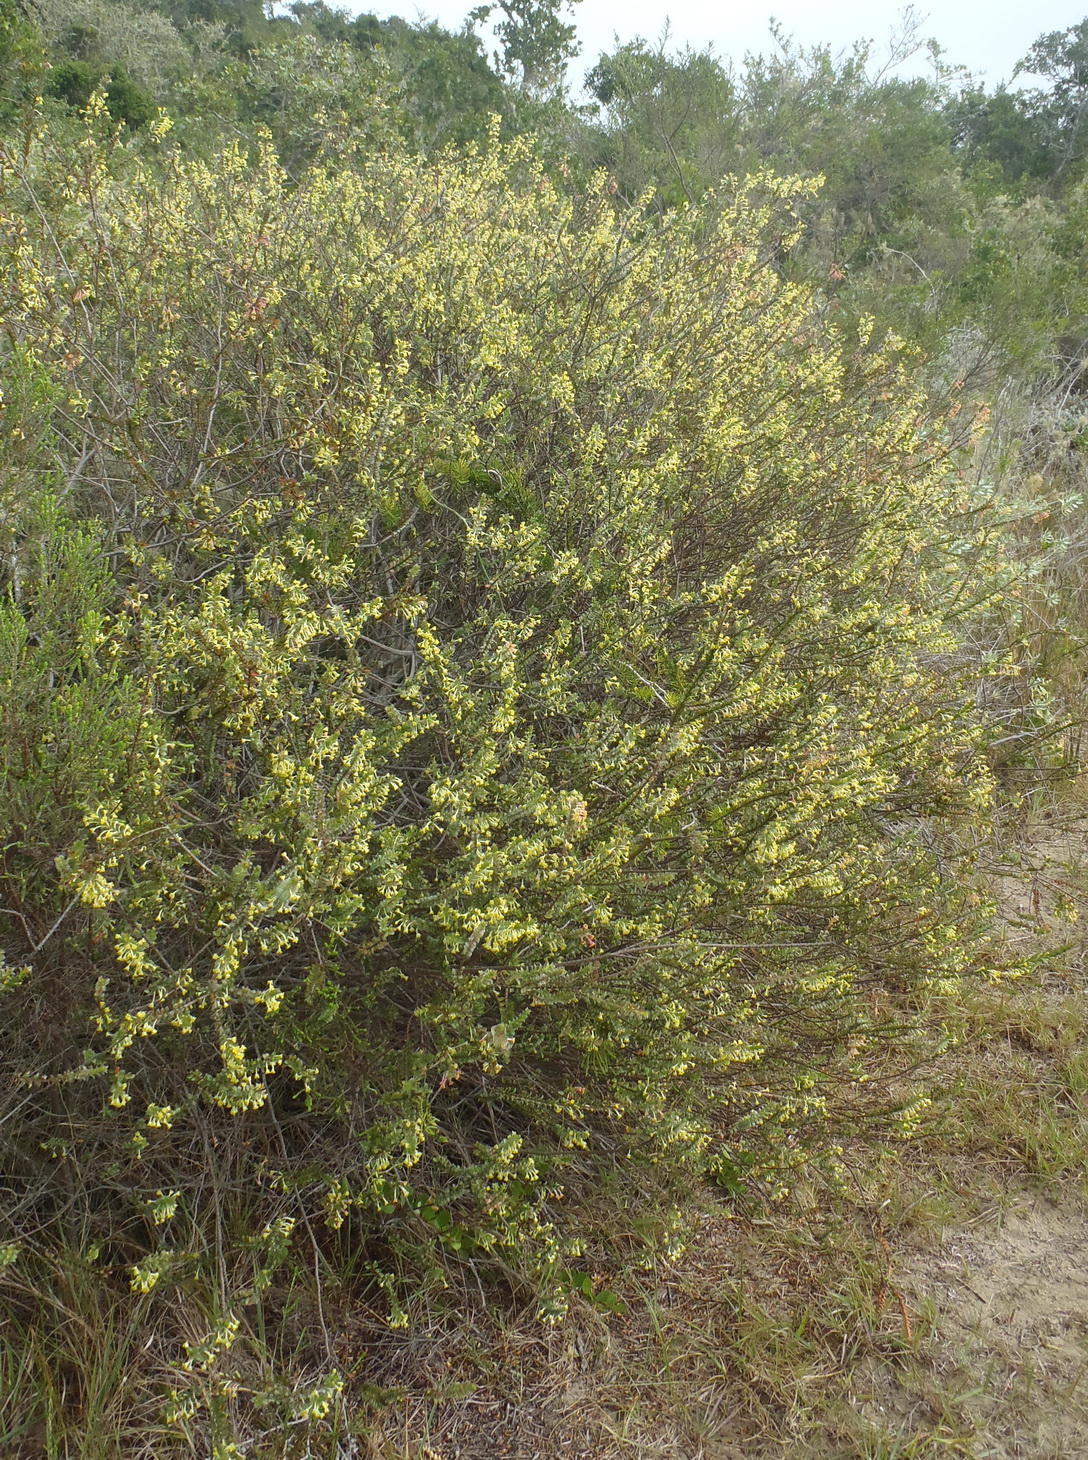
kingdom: Plantae
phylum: Tracheophyta
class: Magnoliopsida
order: Malvales
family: Thymelaeaceae
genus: Struthiola
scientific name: Struthiola argentea
